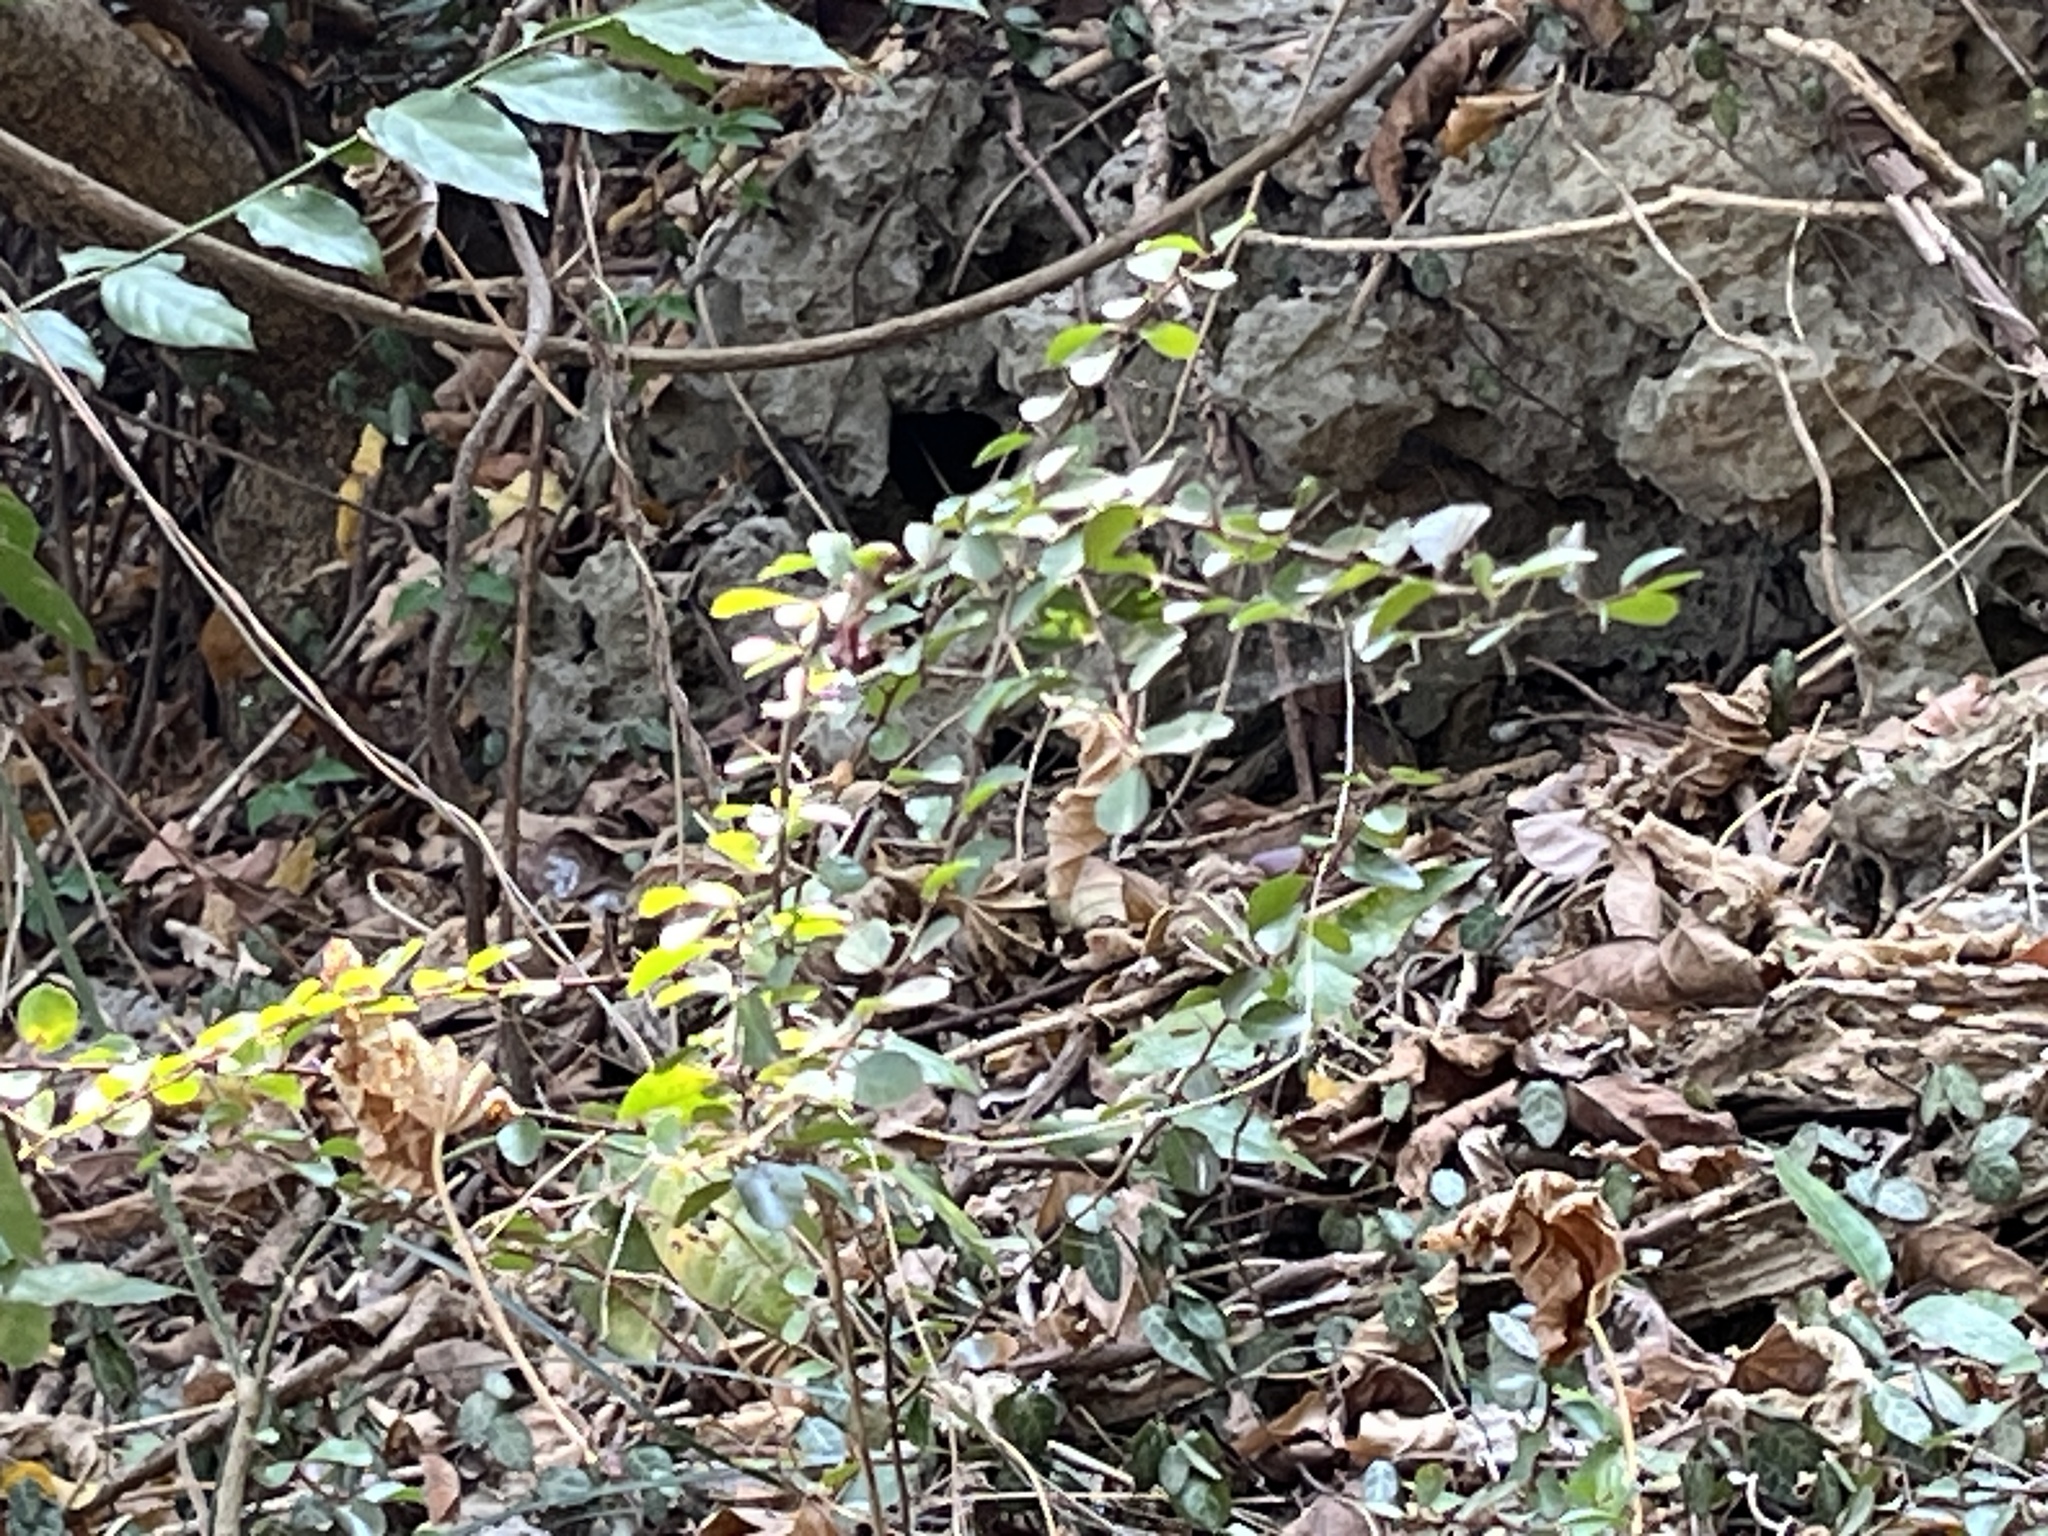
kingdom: Plantae
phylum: Tracheophyta
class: Magnoliopsida
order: Celastrales
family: Celastraceae
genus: Gymnosporia
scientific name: Gymnosporia diversifolia
